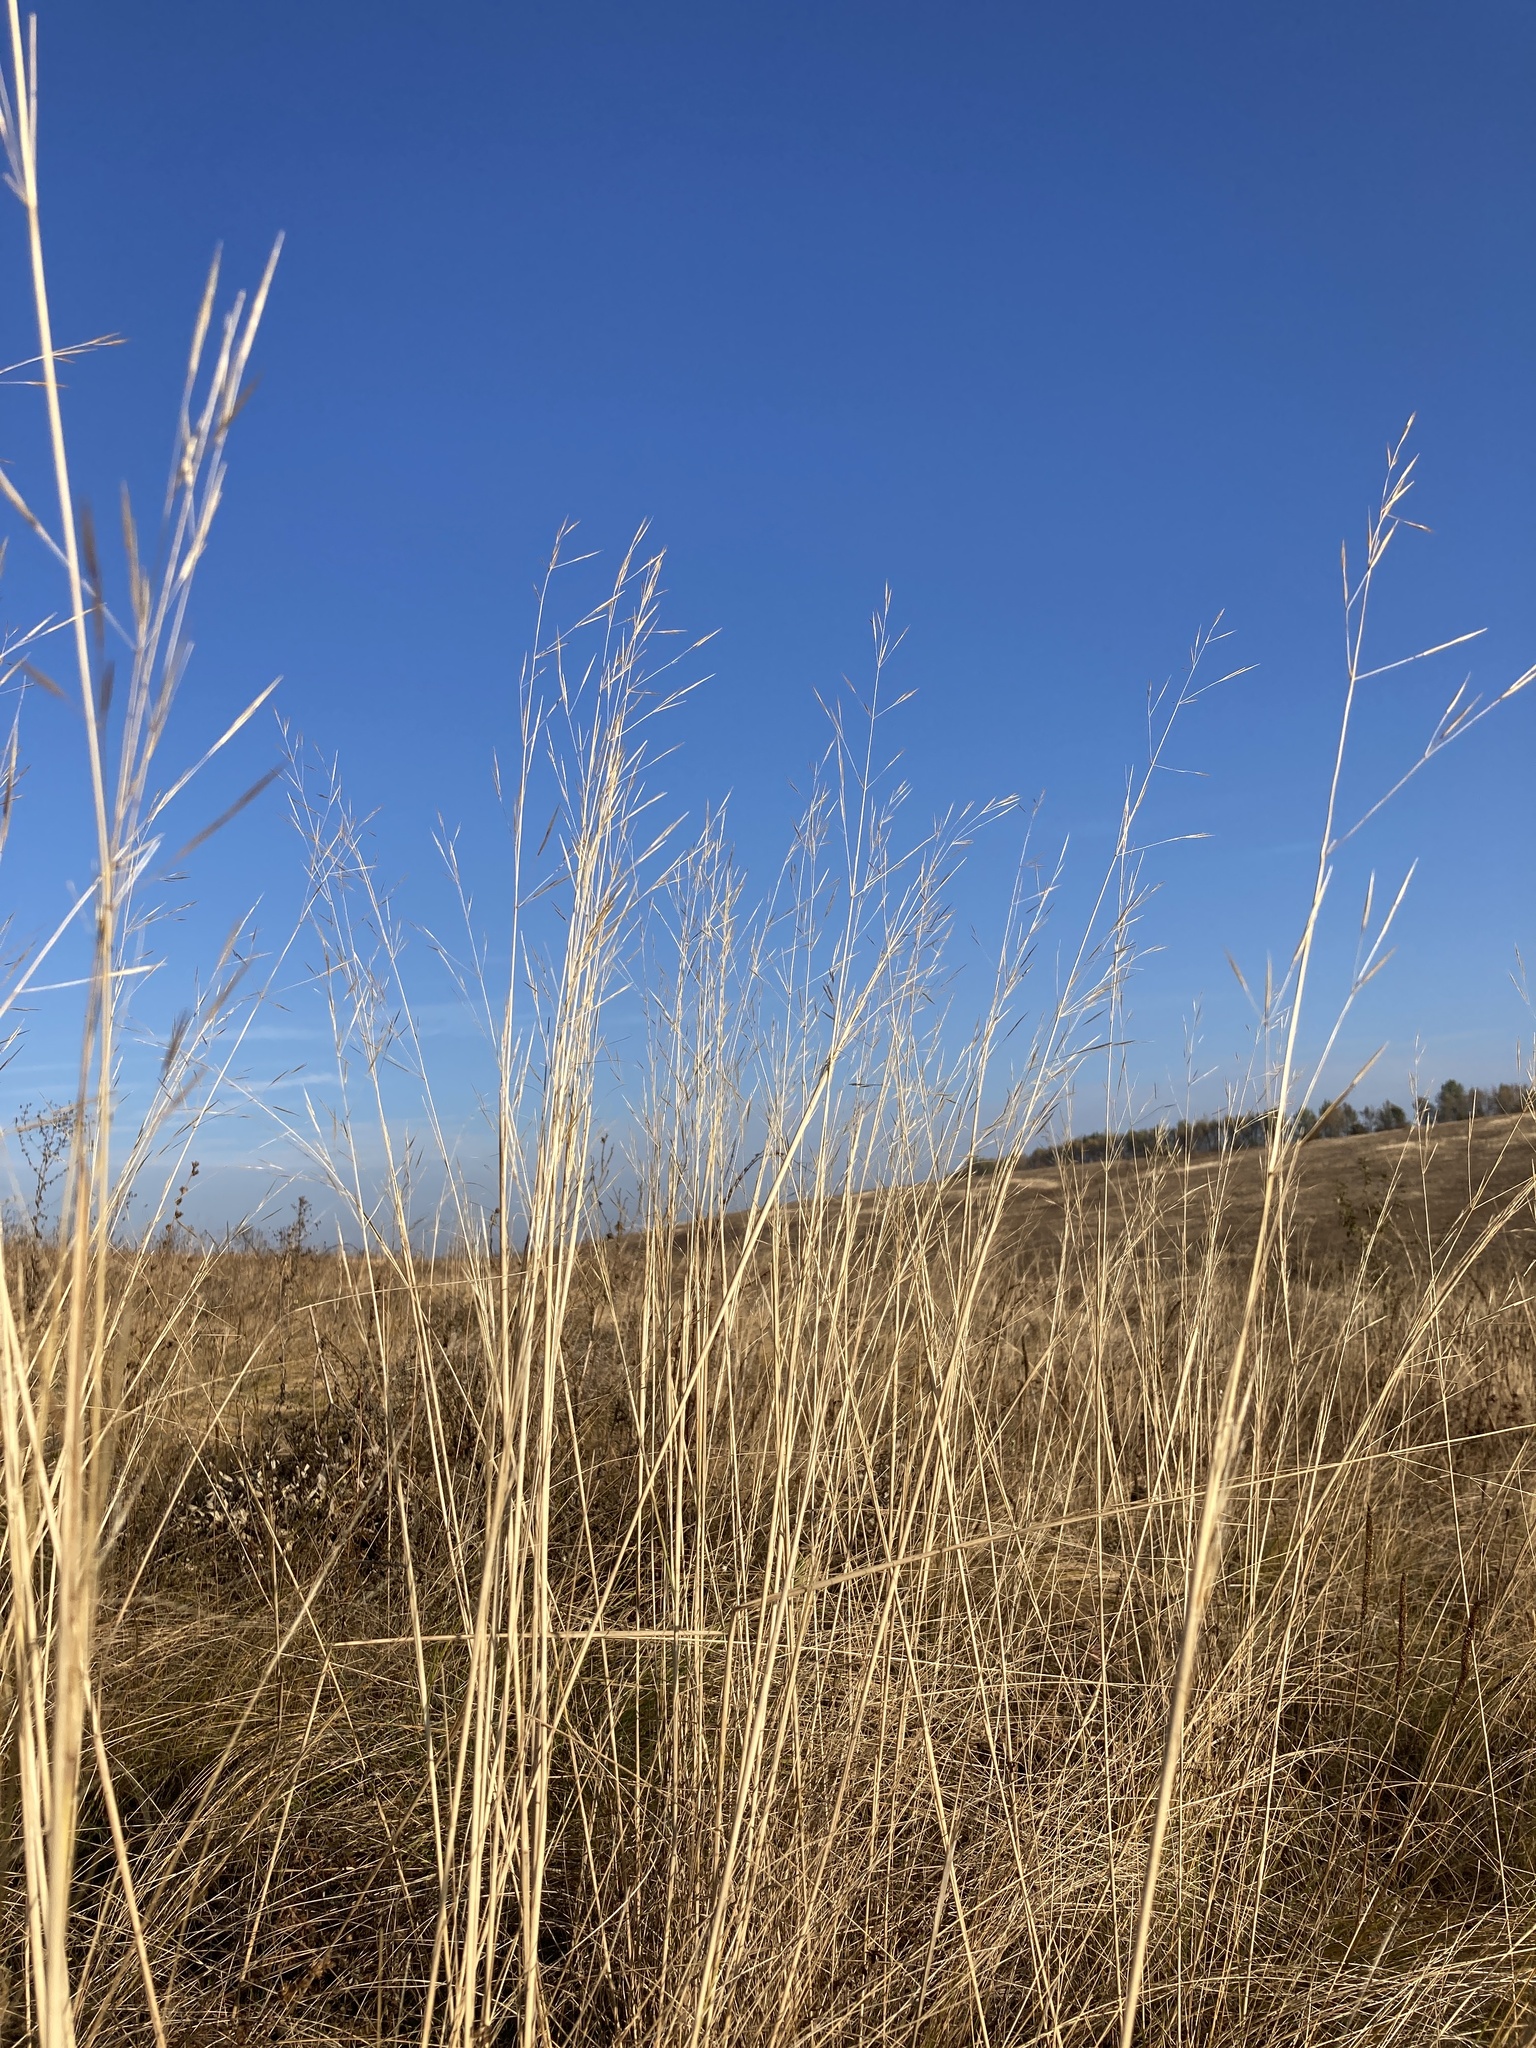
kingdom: Plantae
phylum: Tracheophyta
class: Liliopsida
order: Poales
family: Poaceae
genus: Stipa
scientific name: Stipa capillata
